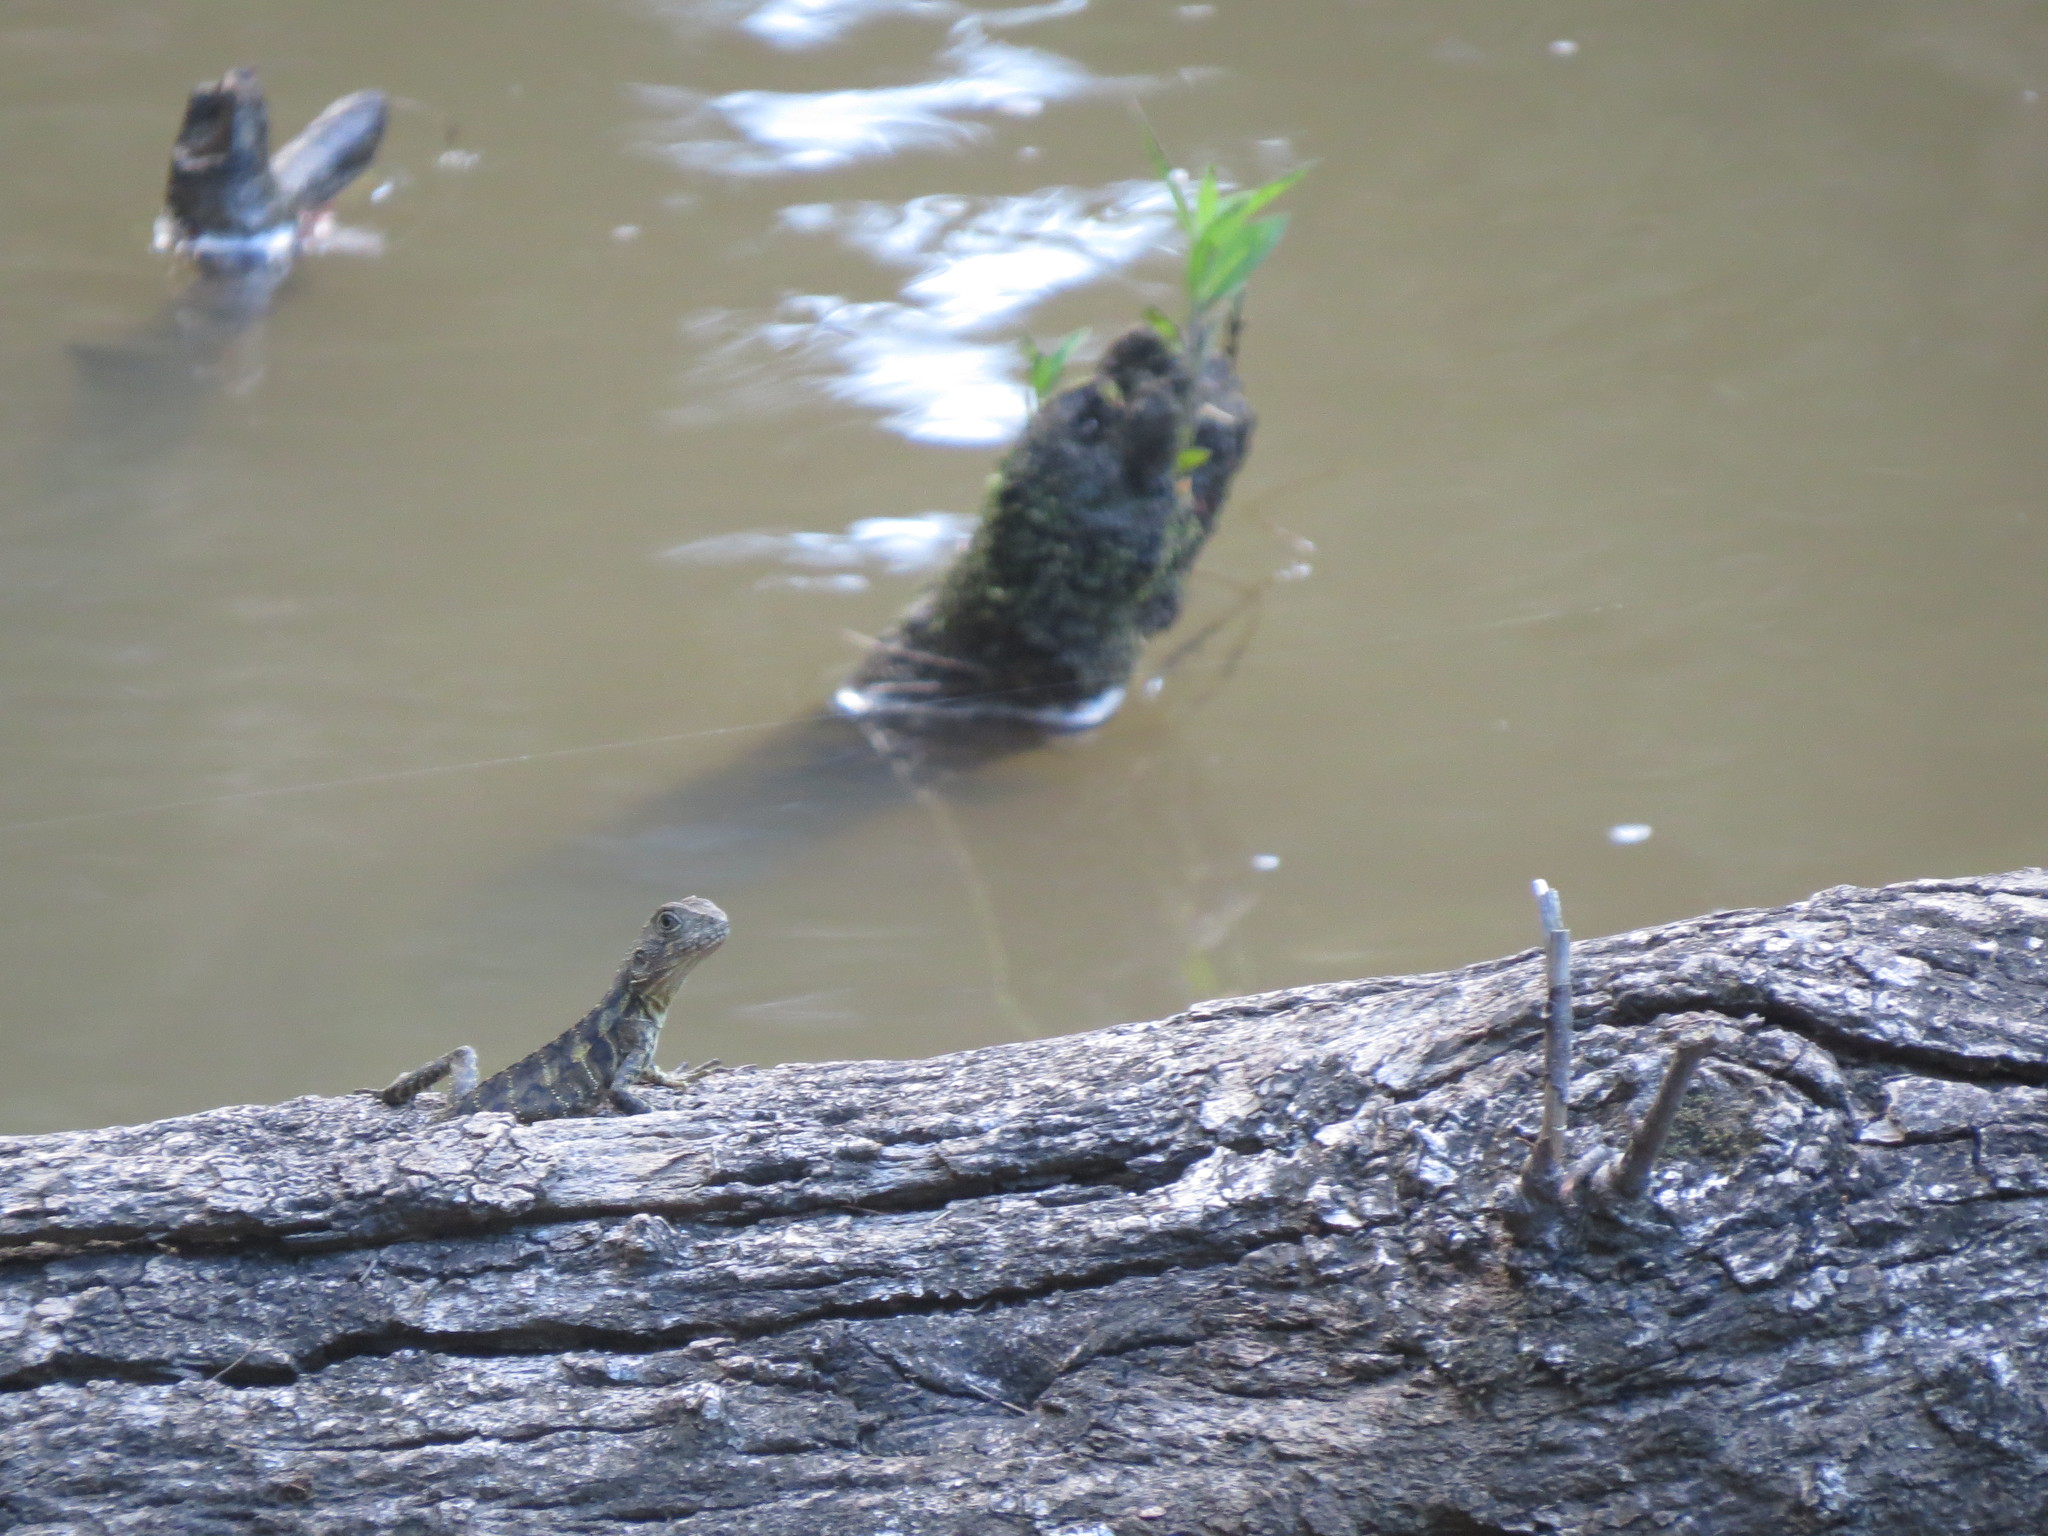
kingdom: Animalia
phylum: Chordata
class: Squamata
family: Agamidae
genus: Intellagama
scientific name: Intellagama lesueurii
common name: Eastern water dragon
